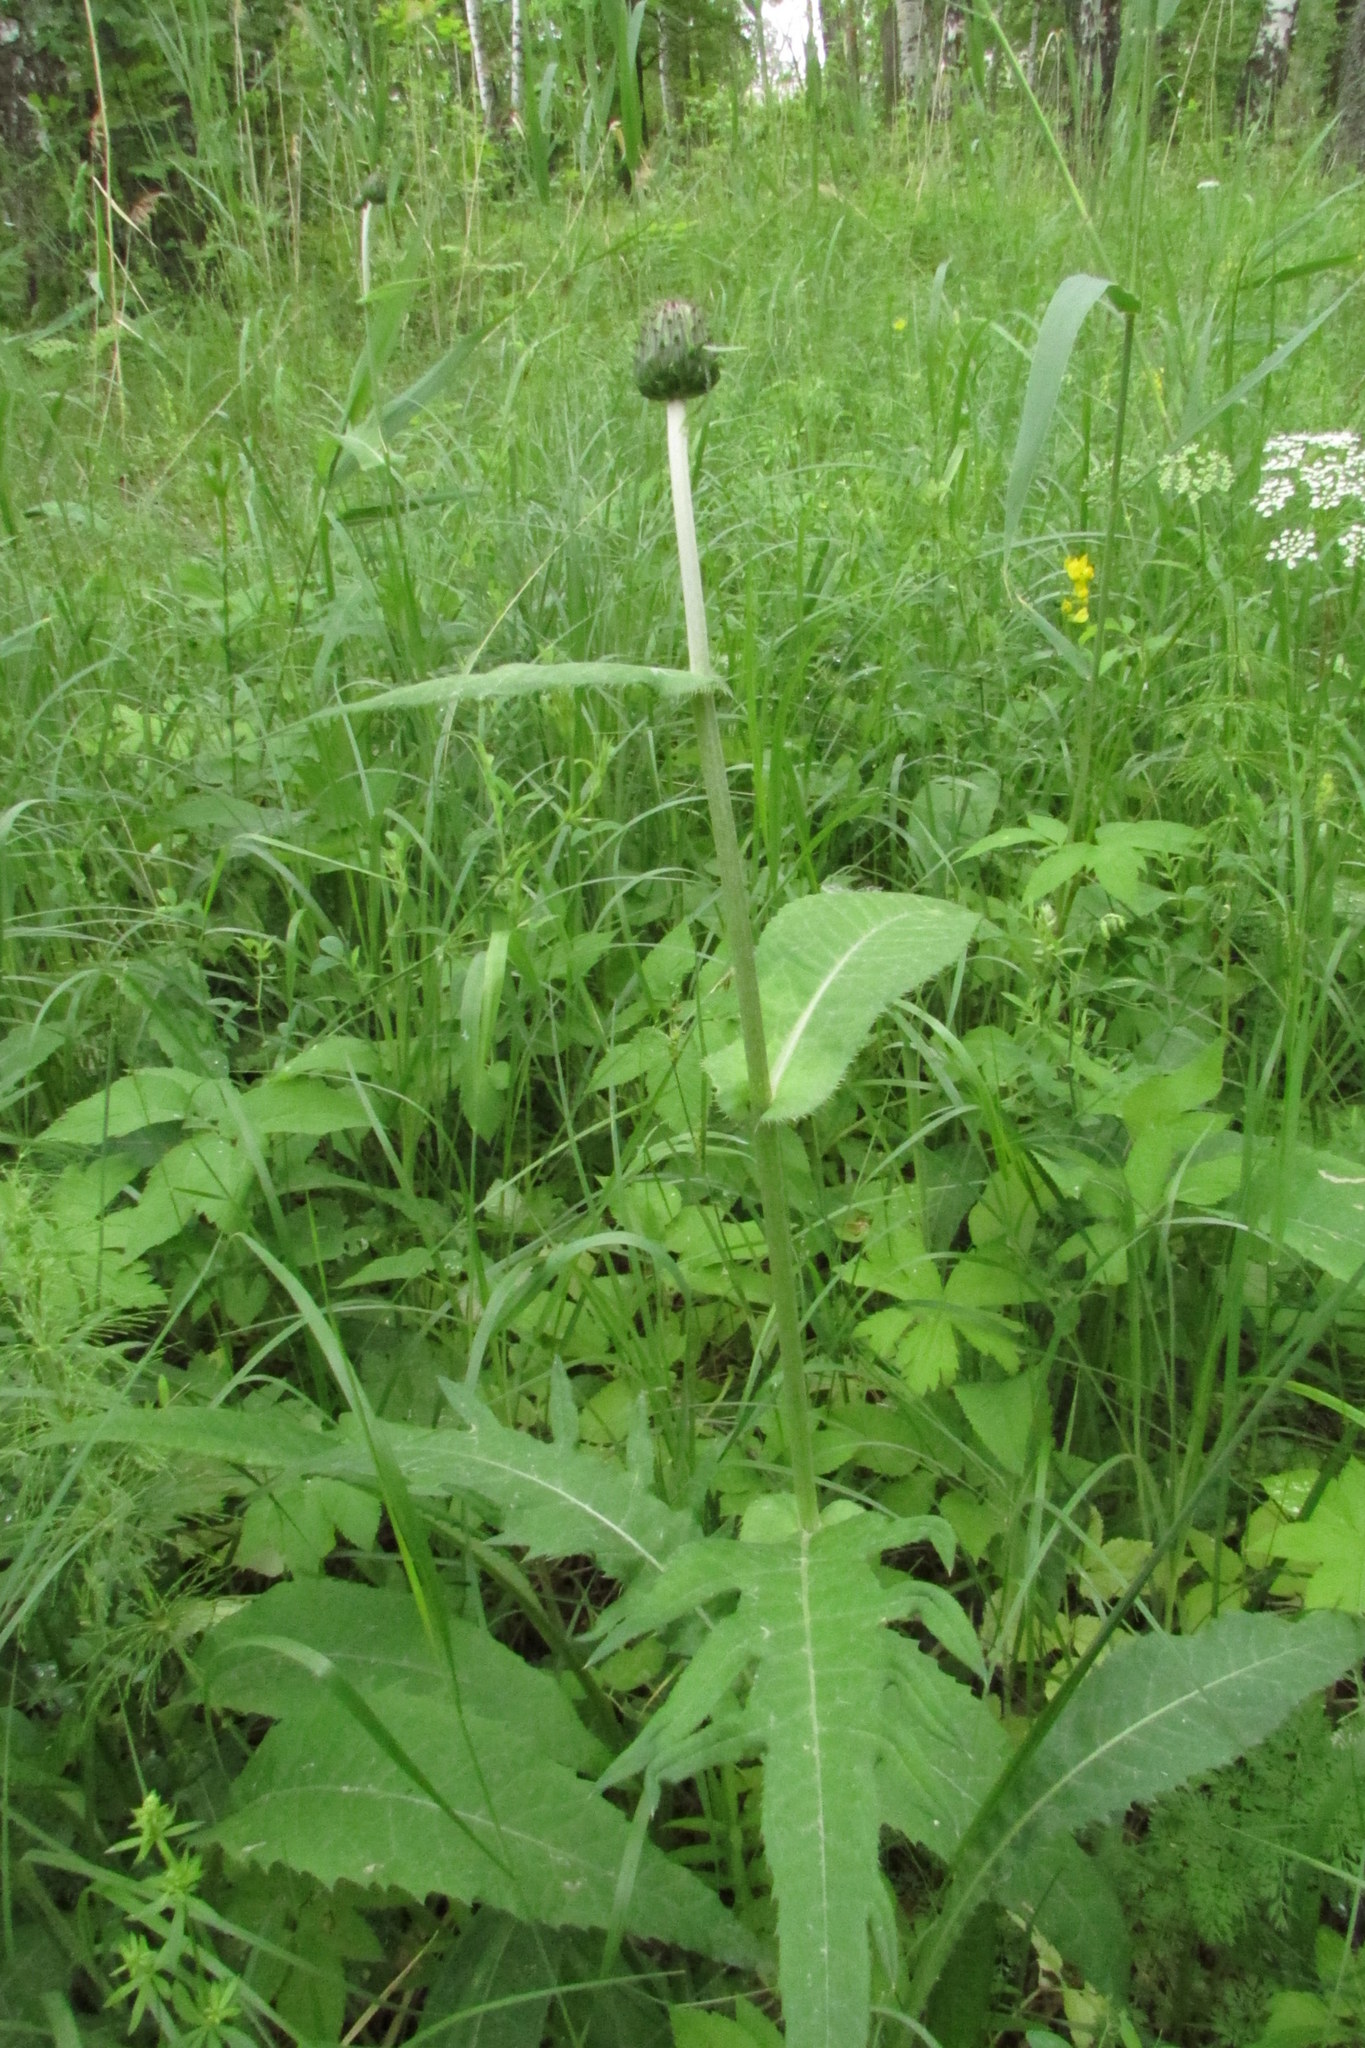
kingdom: Plantae
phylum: Tracheophyta
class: Magnoliopsida
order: Asterales
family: Asteraceae
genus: Cirsium
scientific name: Cirsium heterophyllum
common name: Melancholy thistle
